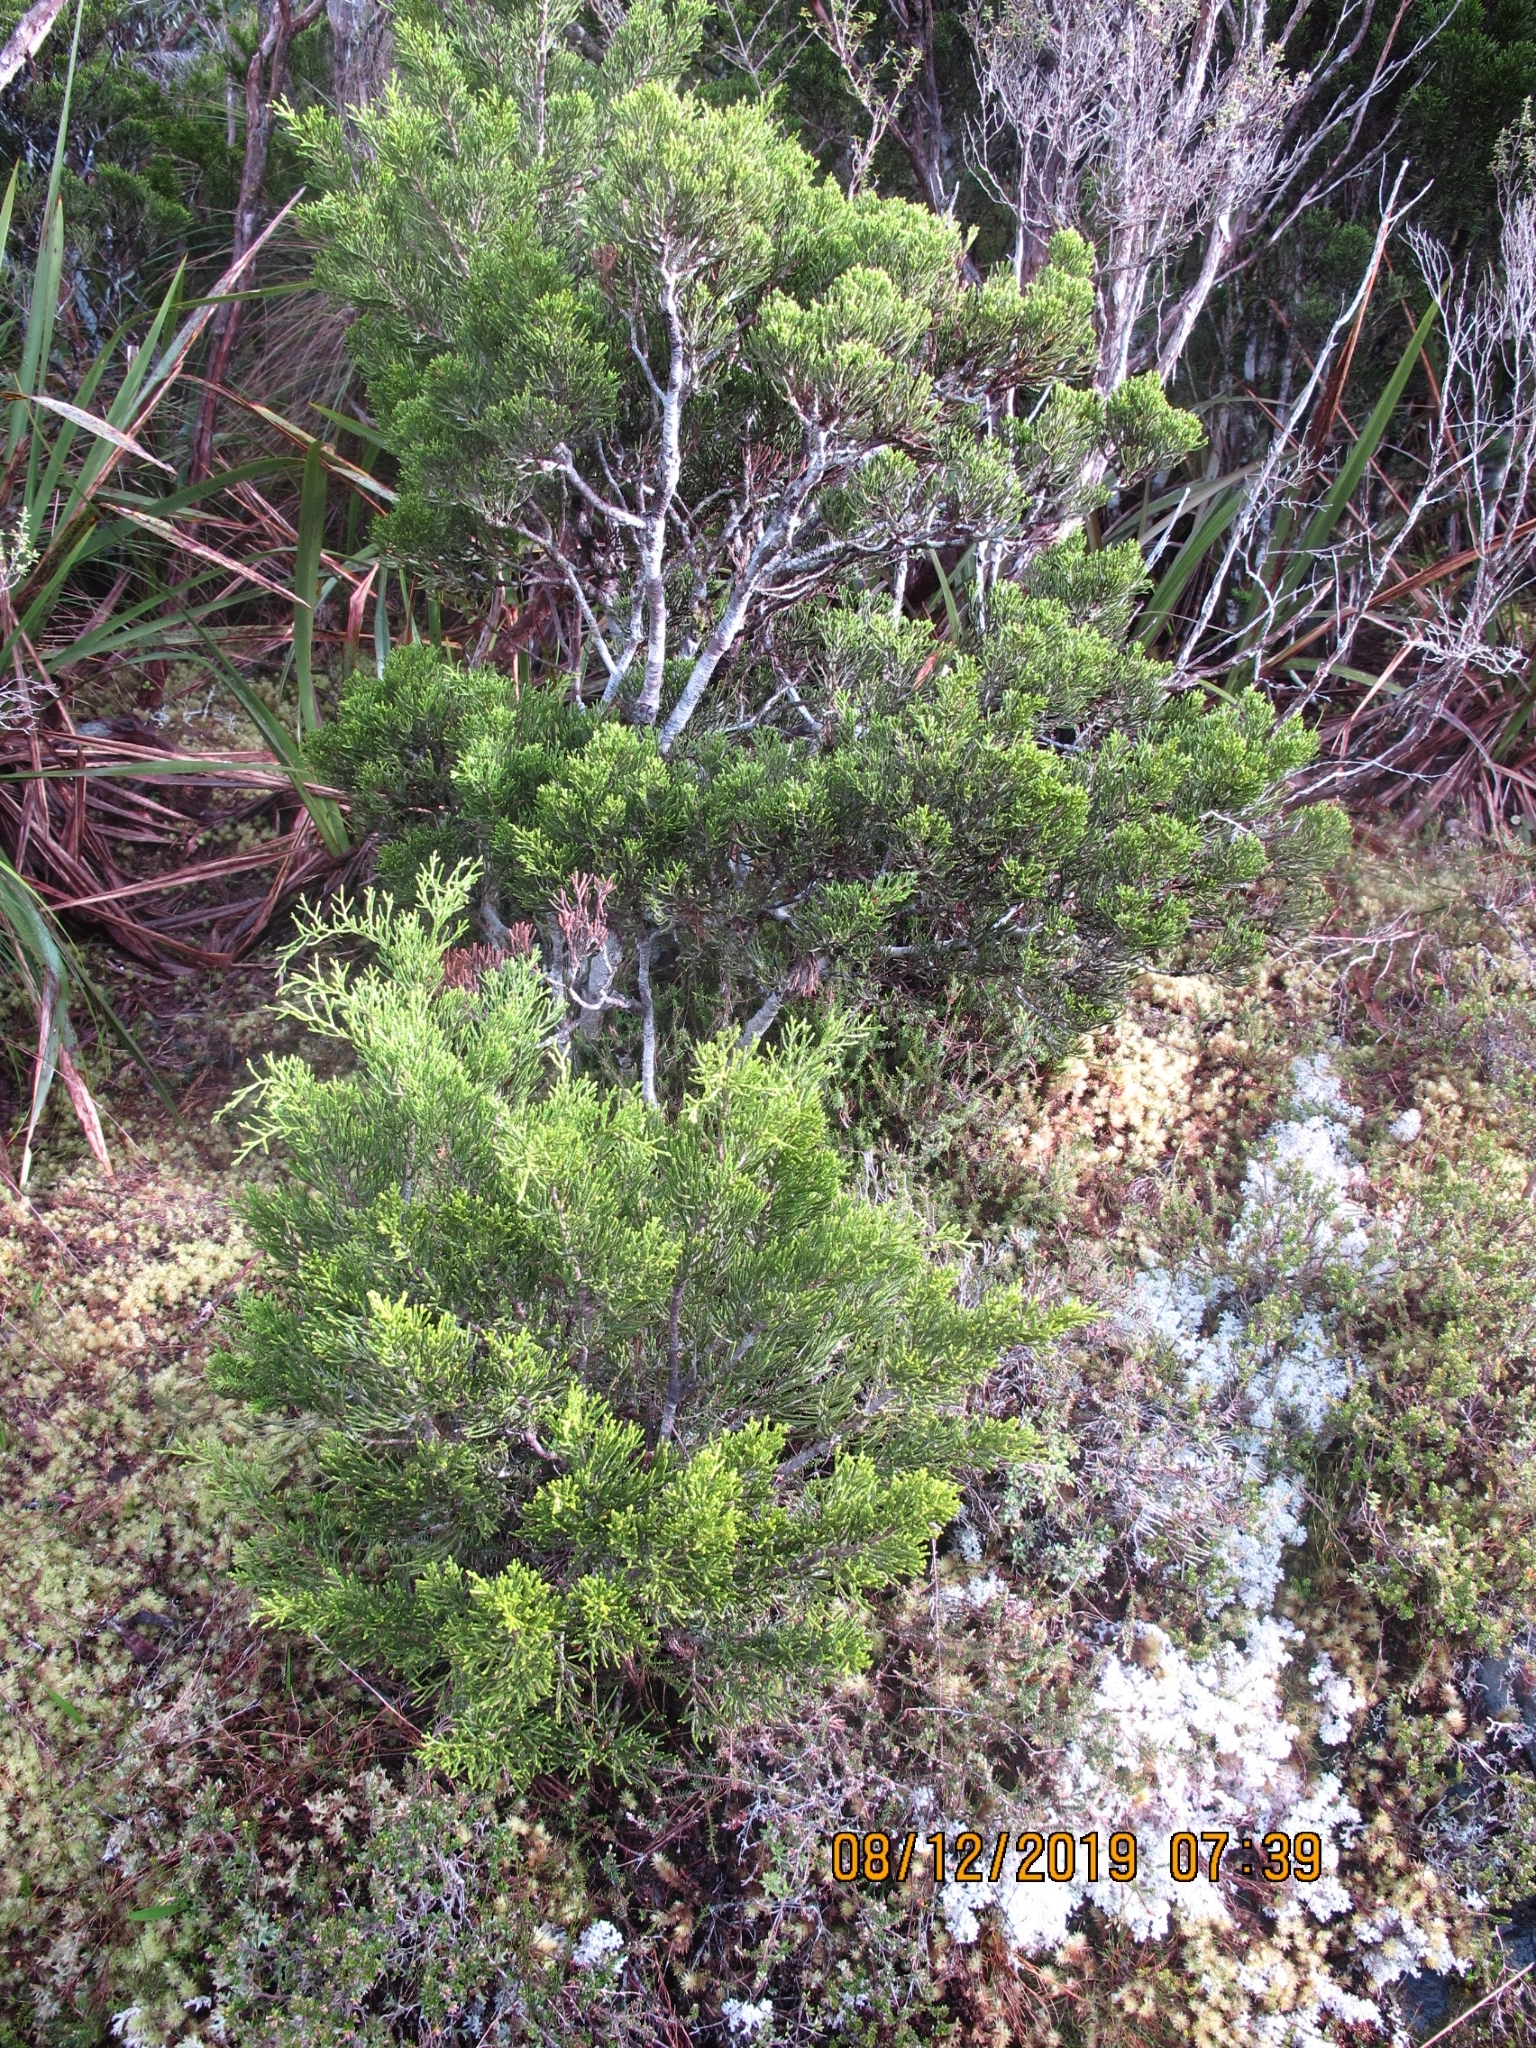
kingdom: Plantae
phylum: Tracheophyta
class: Pinopsida
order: Pinales
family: Podocarpaceae
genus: Halocarpus
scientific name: Halocarpus bidwillii
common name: Bog pine
